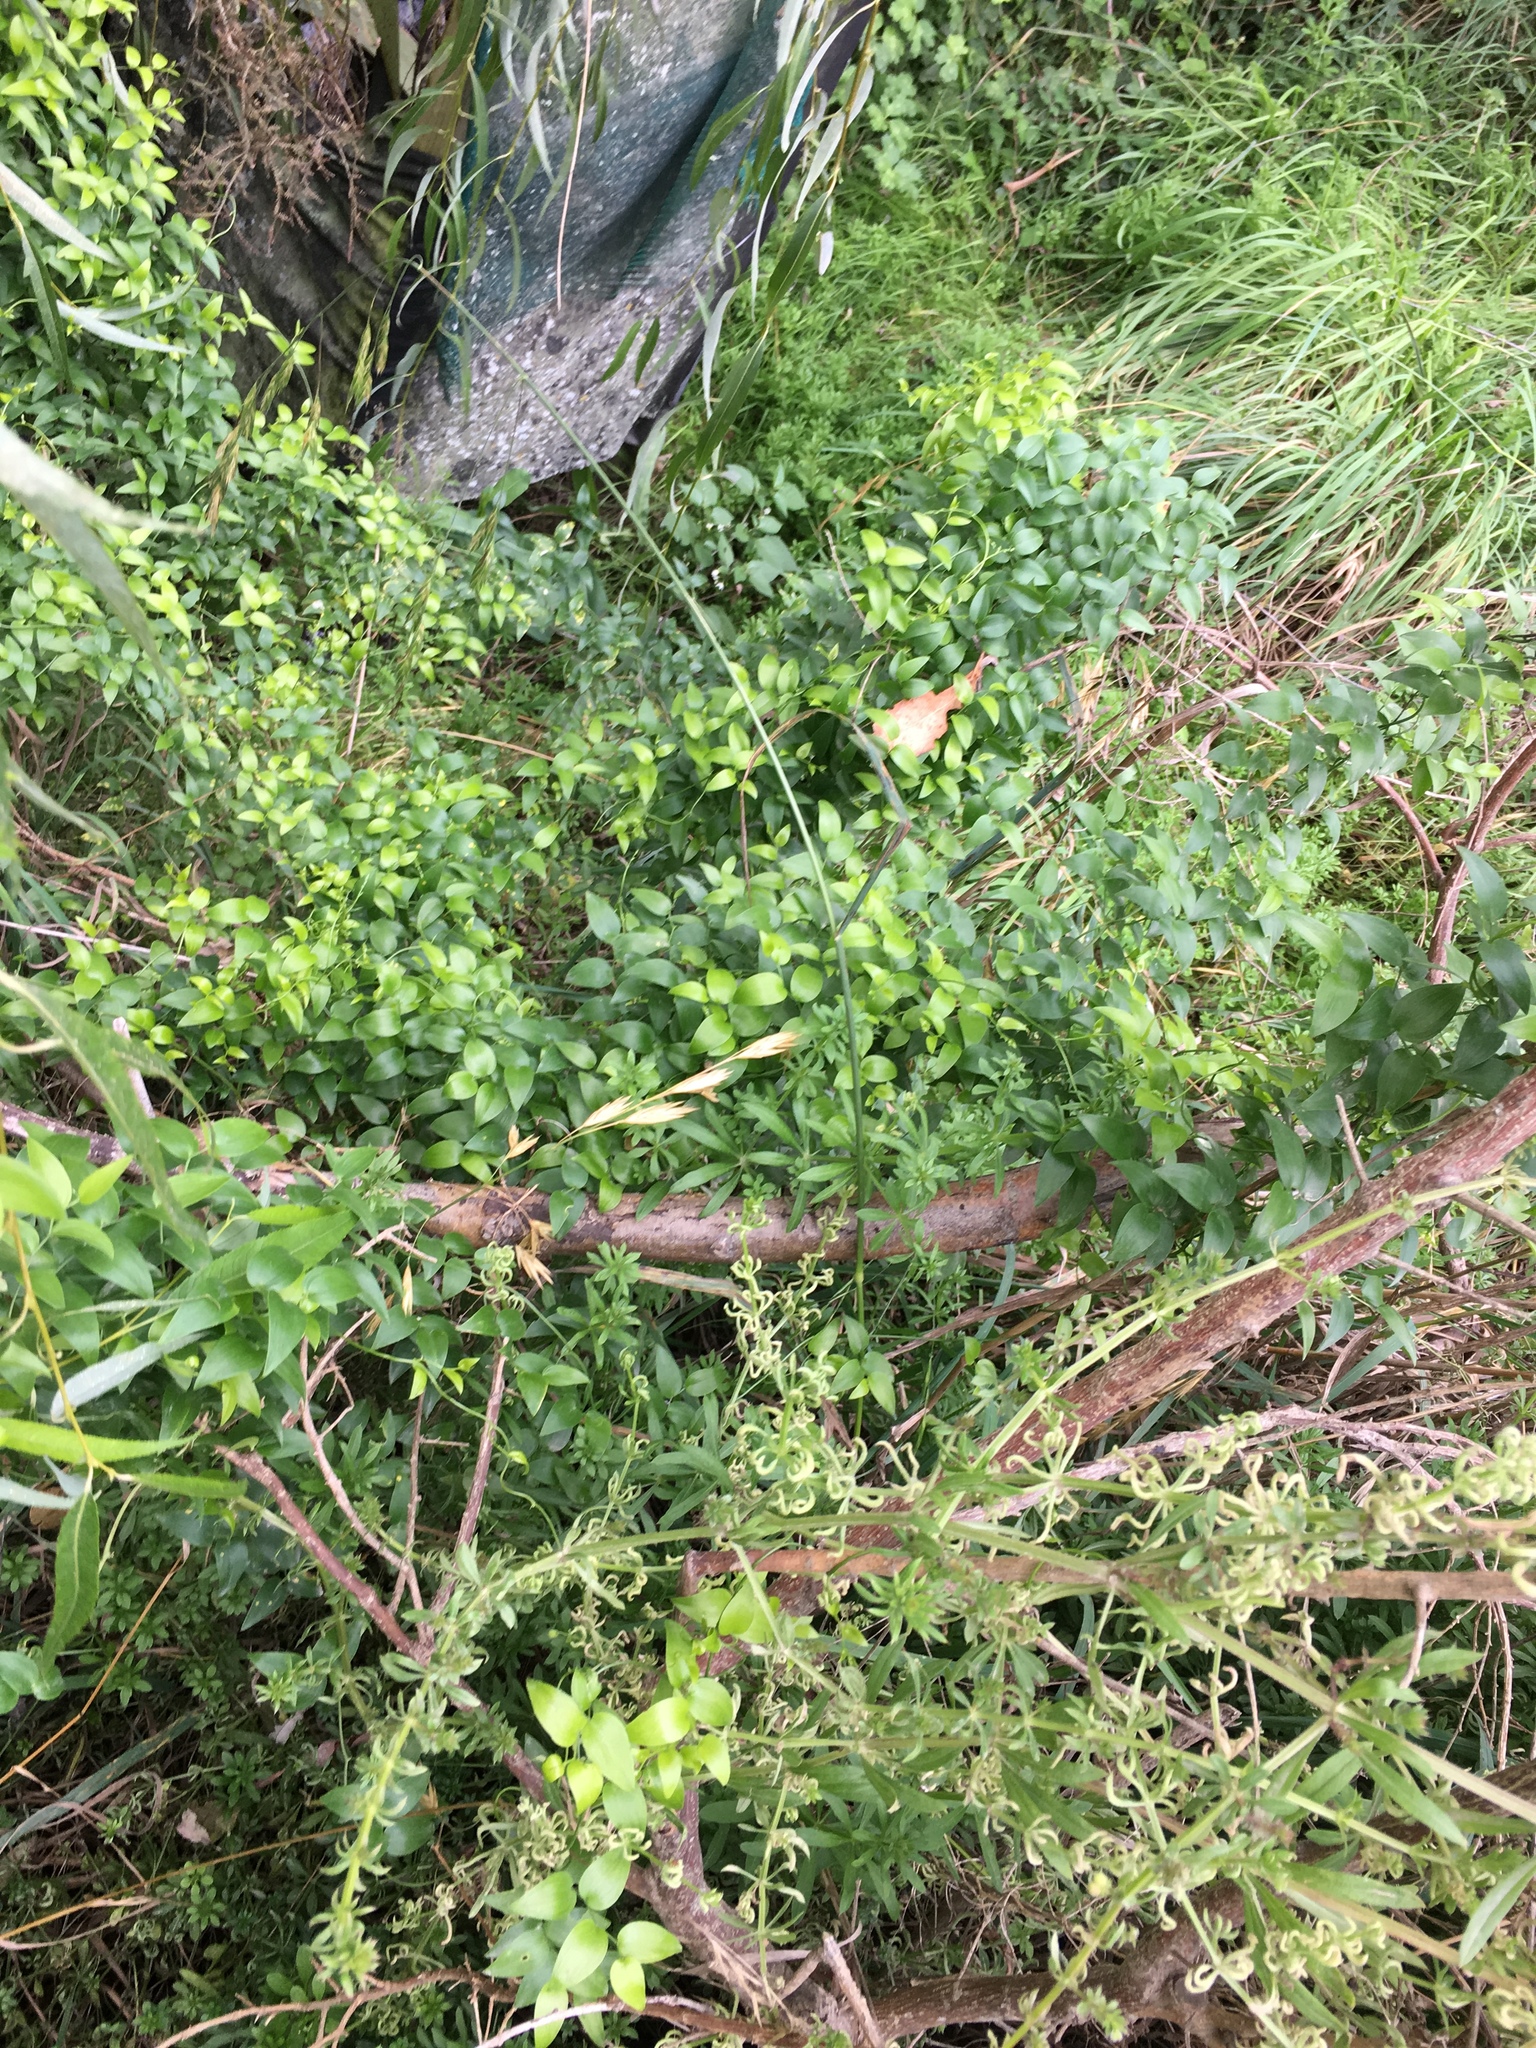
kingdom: Plantae
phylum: Tracheophyta
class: Liliopsida
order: Asparagales
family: Asparagaceae
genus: Asparagus
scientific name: Asparagus asparagoides
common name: African asparagus fern
